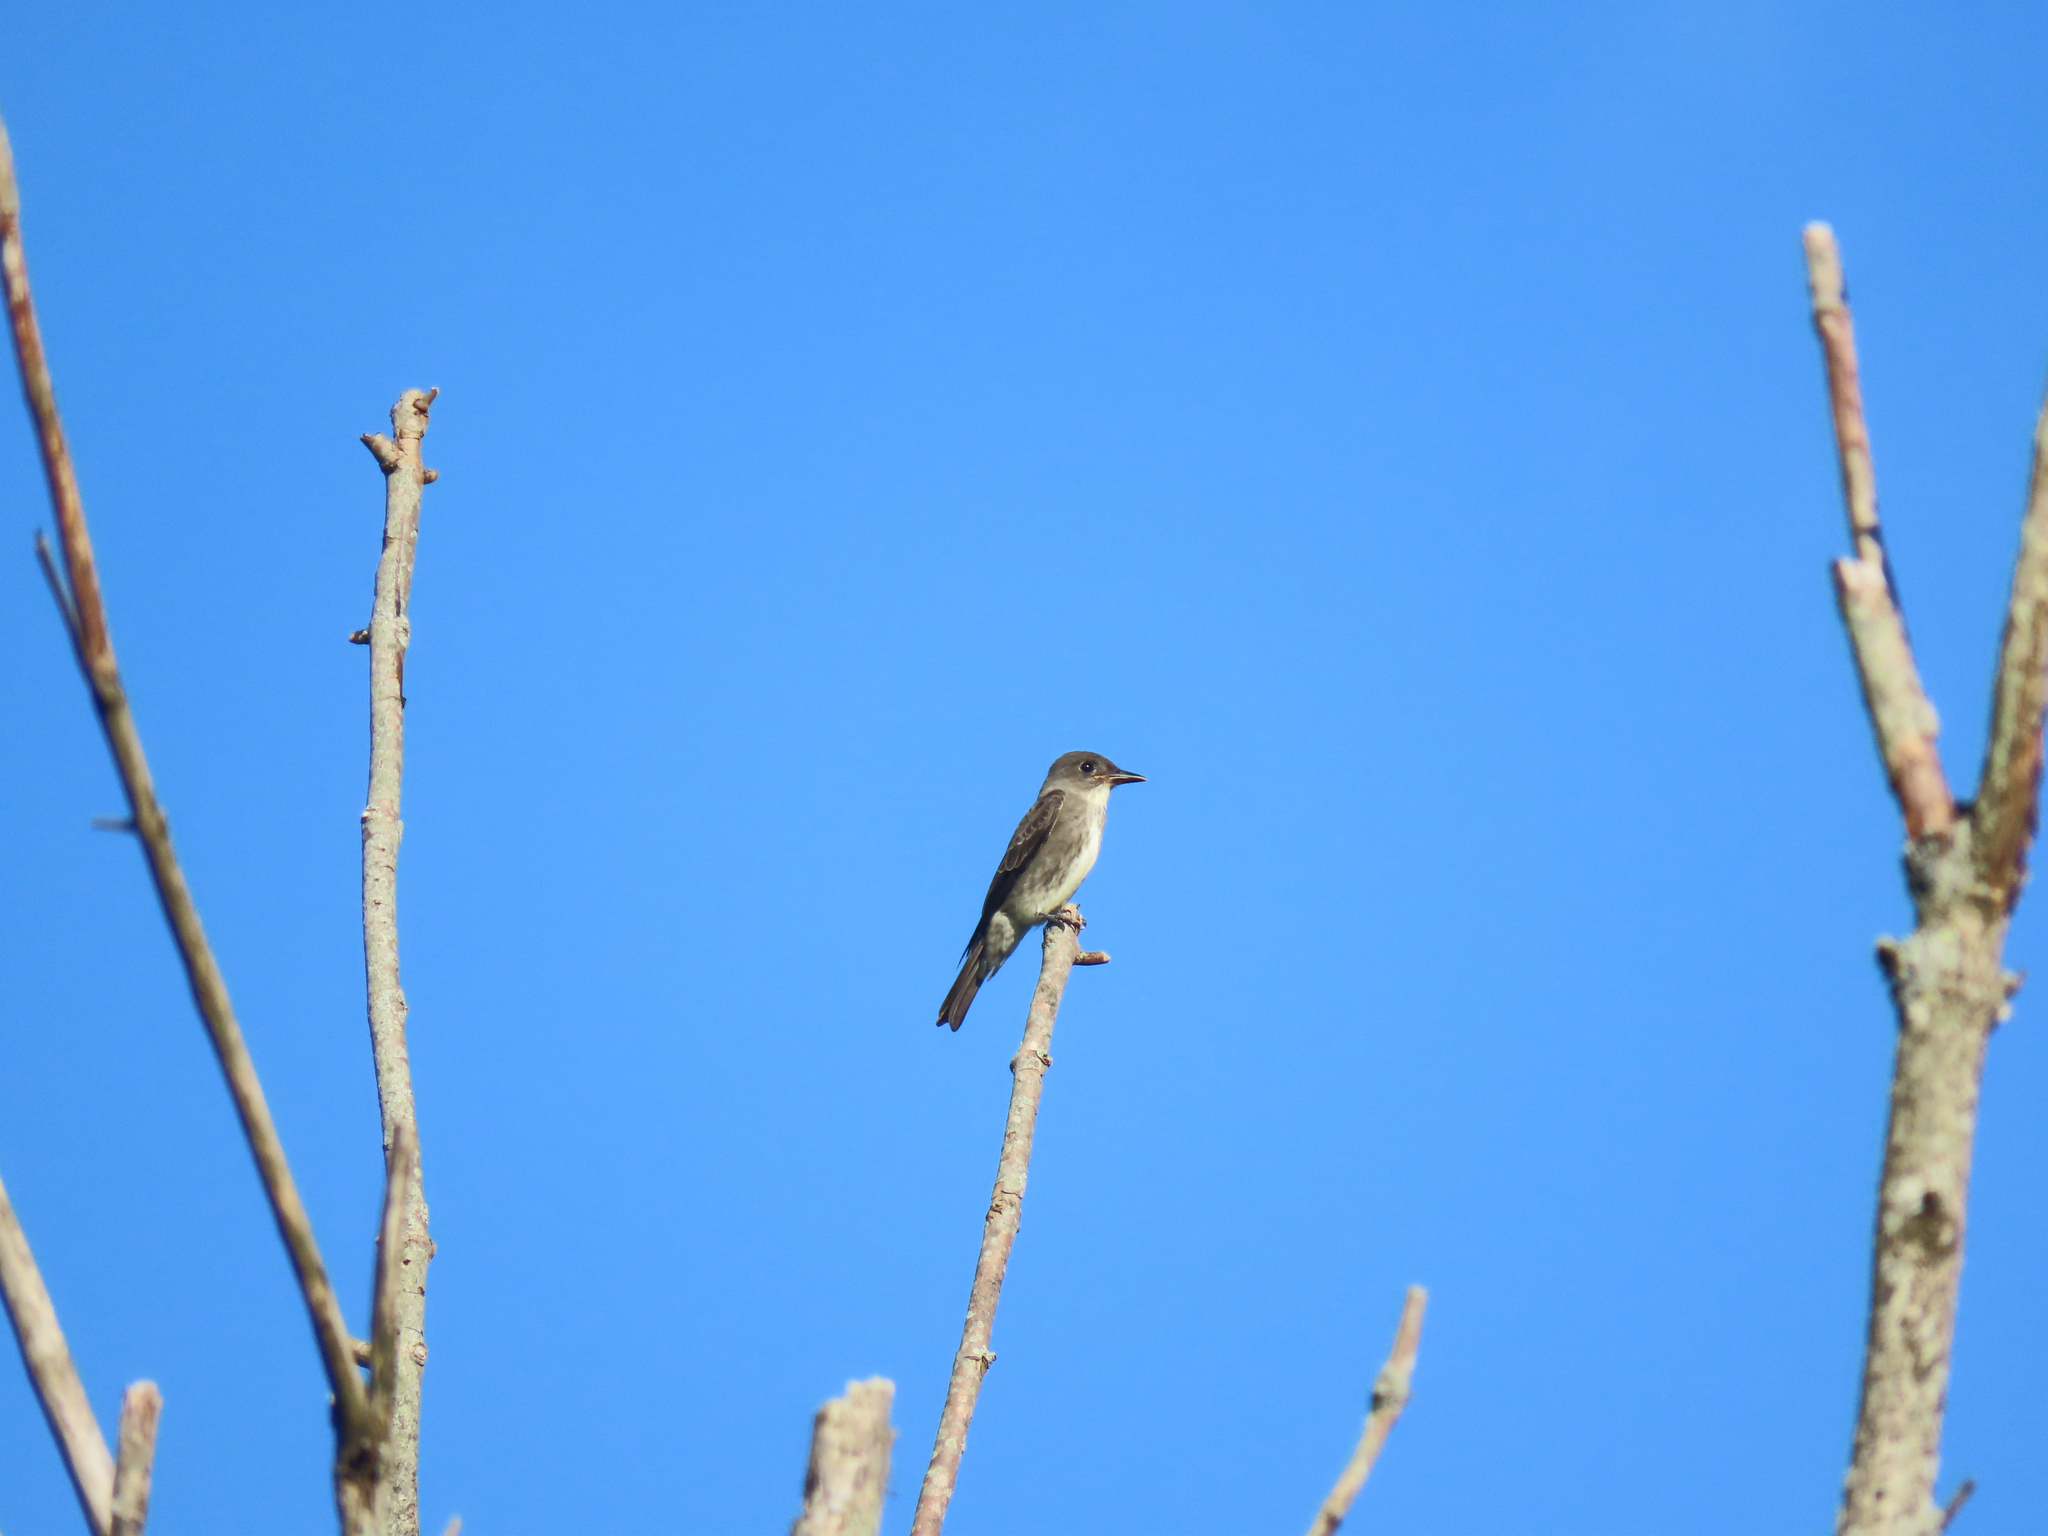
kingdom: Animalia
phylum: Chordata
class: Aves
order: Passeriformes
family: Tyrannidae
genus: Contopus
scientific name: Contopus cooperi
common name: Olive-sided flycatcher
